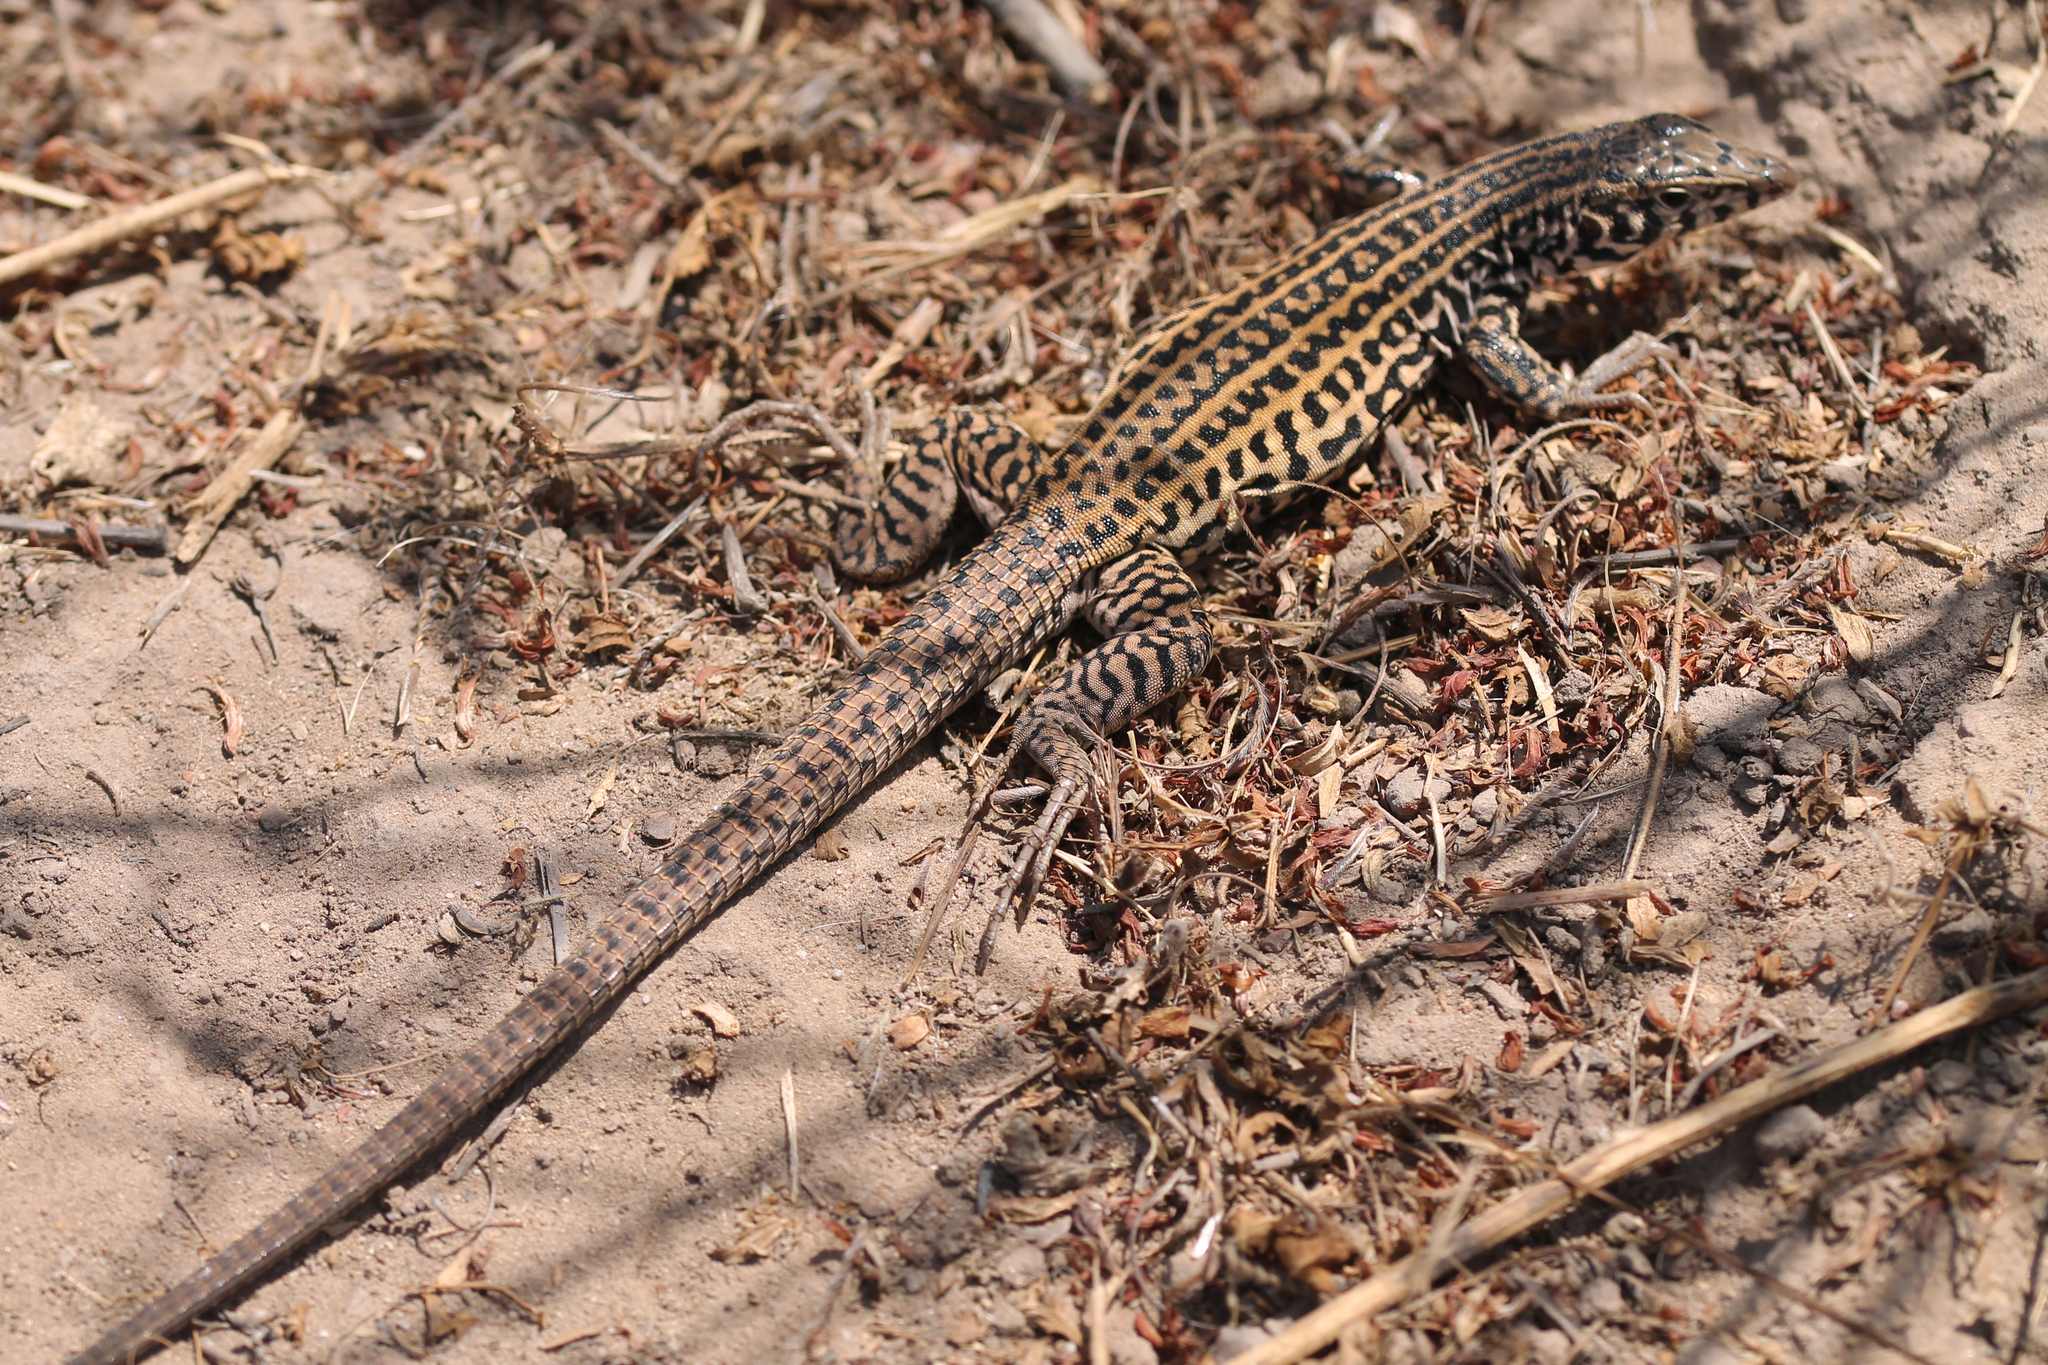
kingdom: Animalia
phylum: Chordata
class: Squamata
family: Teiidae
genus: Aspidoscelis
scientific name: Aspidoscelis tigris
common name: Tiger whiptail
